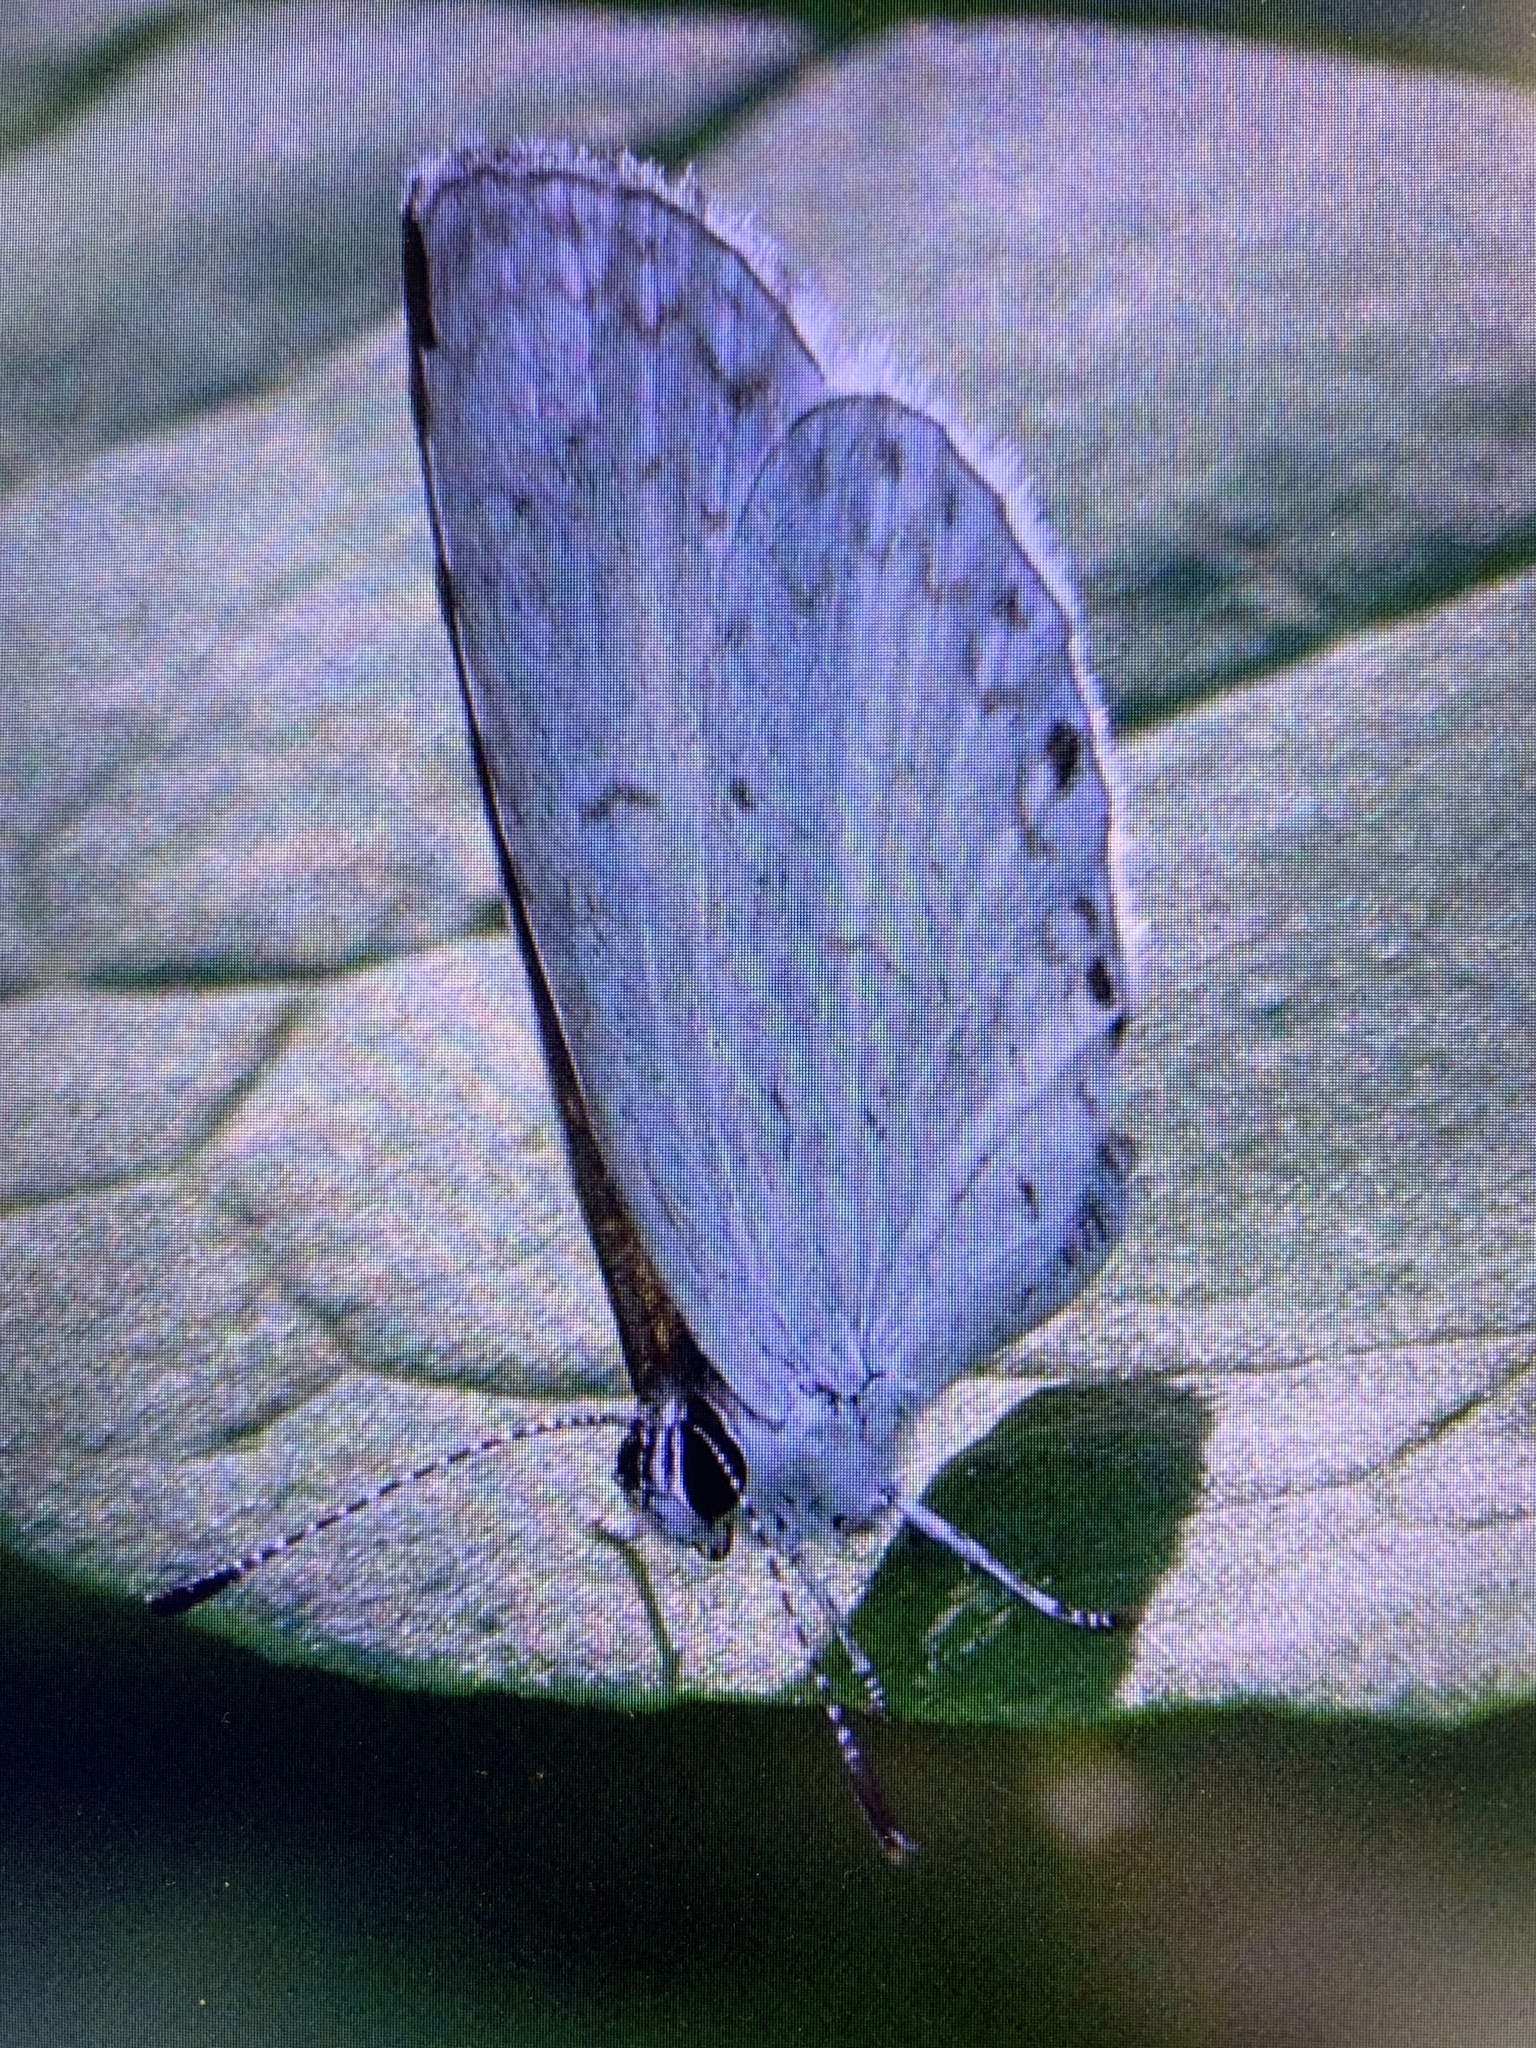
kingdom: Animalia
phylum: Arthropoda
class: Insecta
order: Lepidoptera
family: Lycaenidae
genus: Cyaniris
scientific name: Cyaniris neglecta
